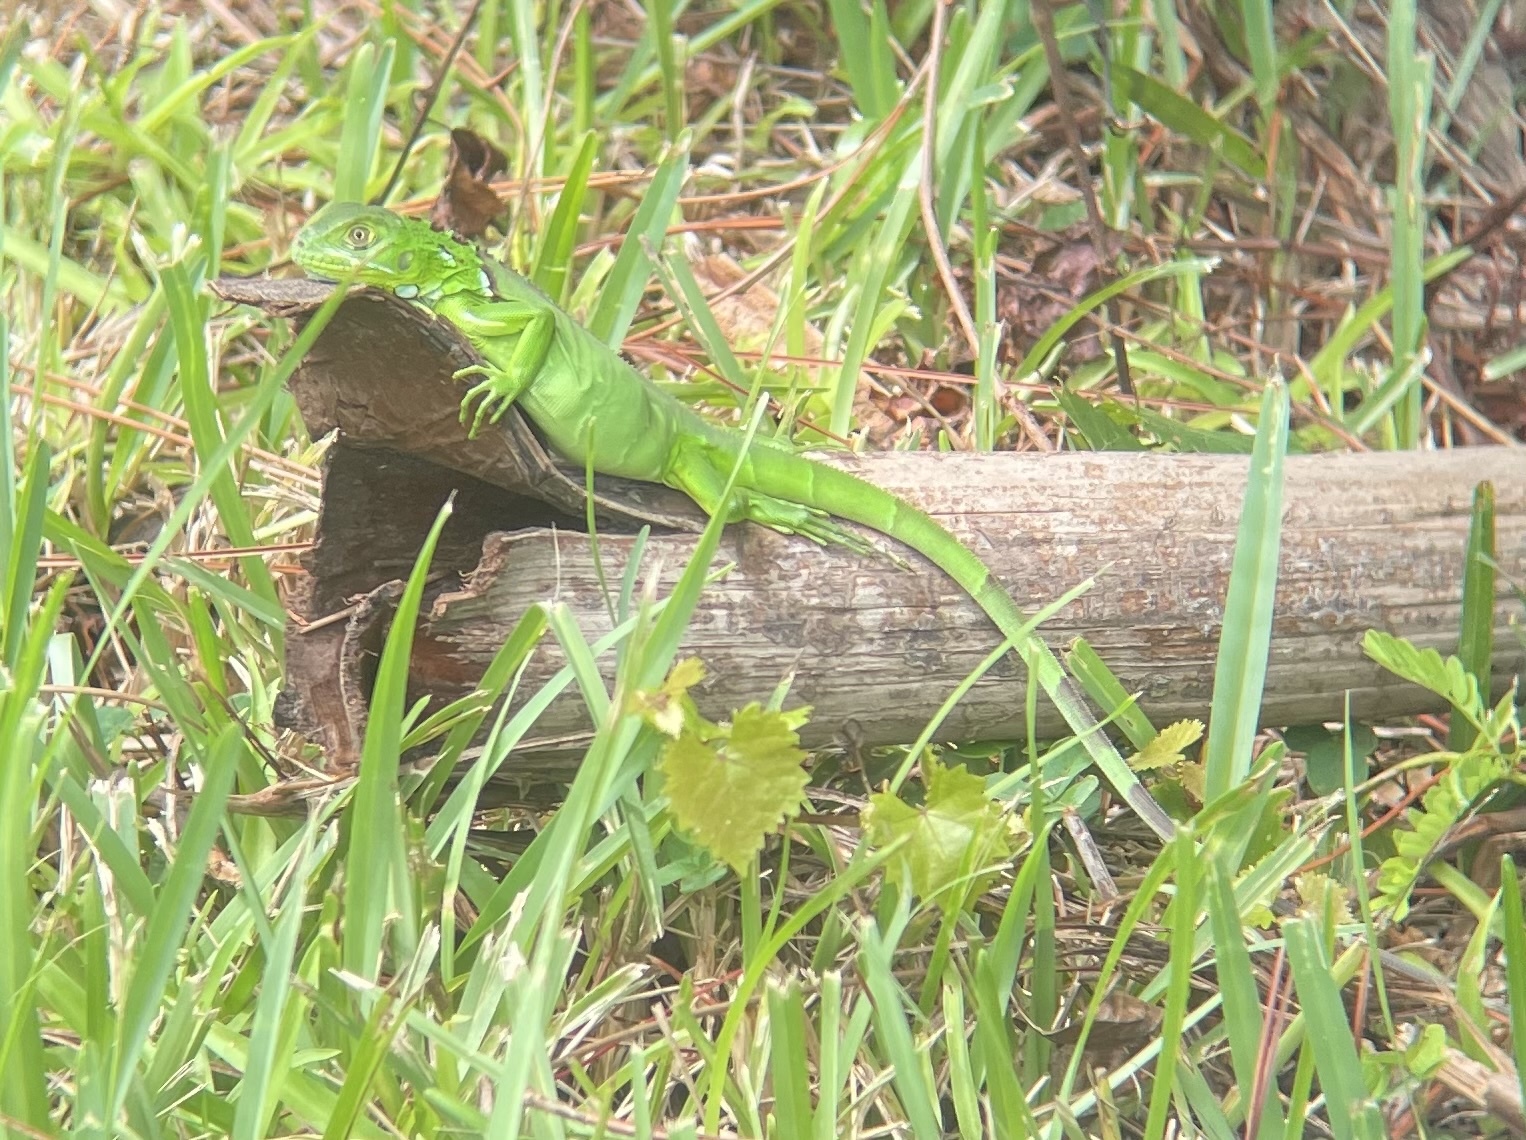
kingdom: Animalia
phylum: Chordata
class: Squamata
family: Iguanidae
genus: Iguana
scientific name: Iguana iguana
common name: Green iguana
